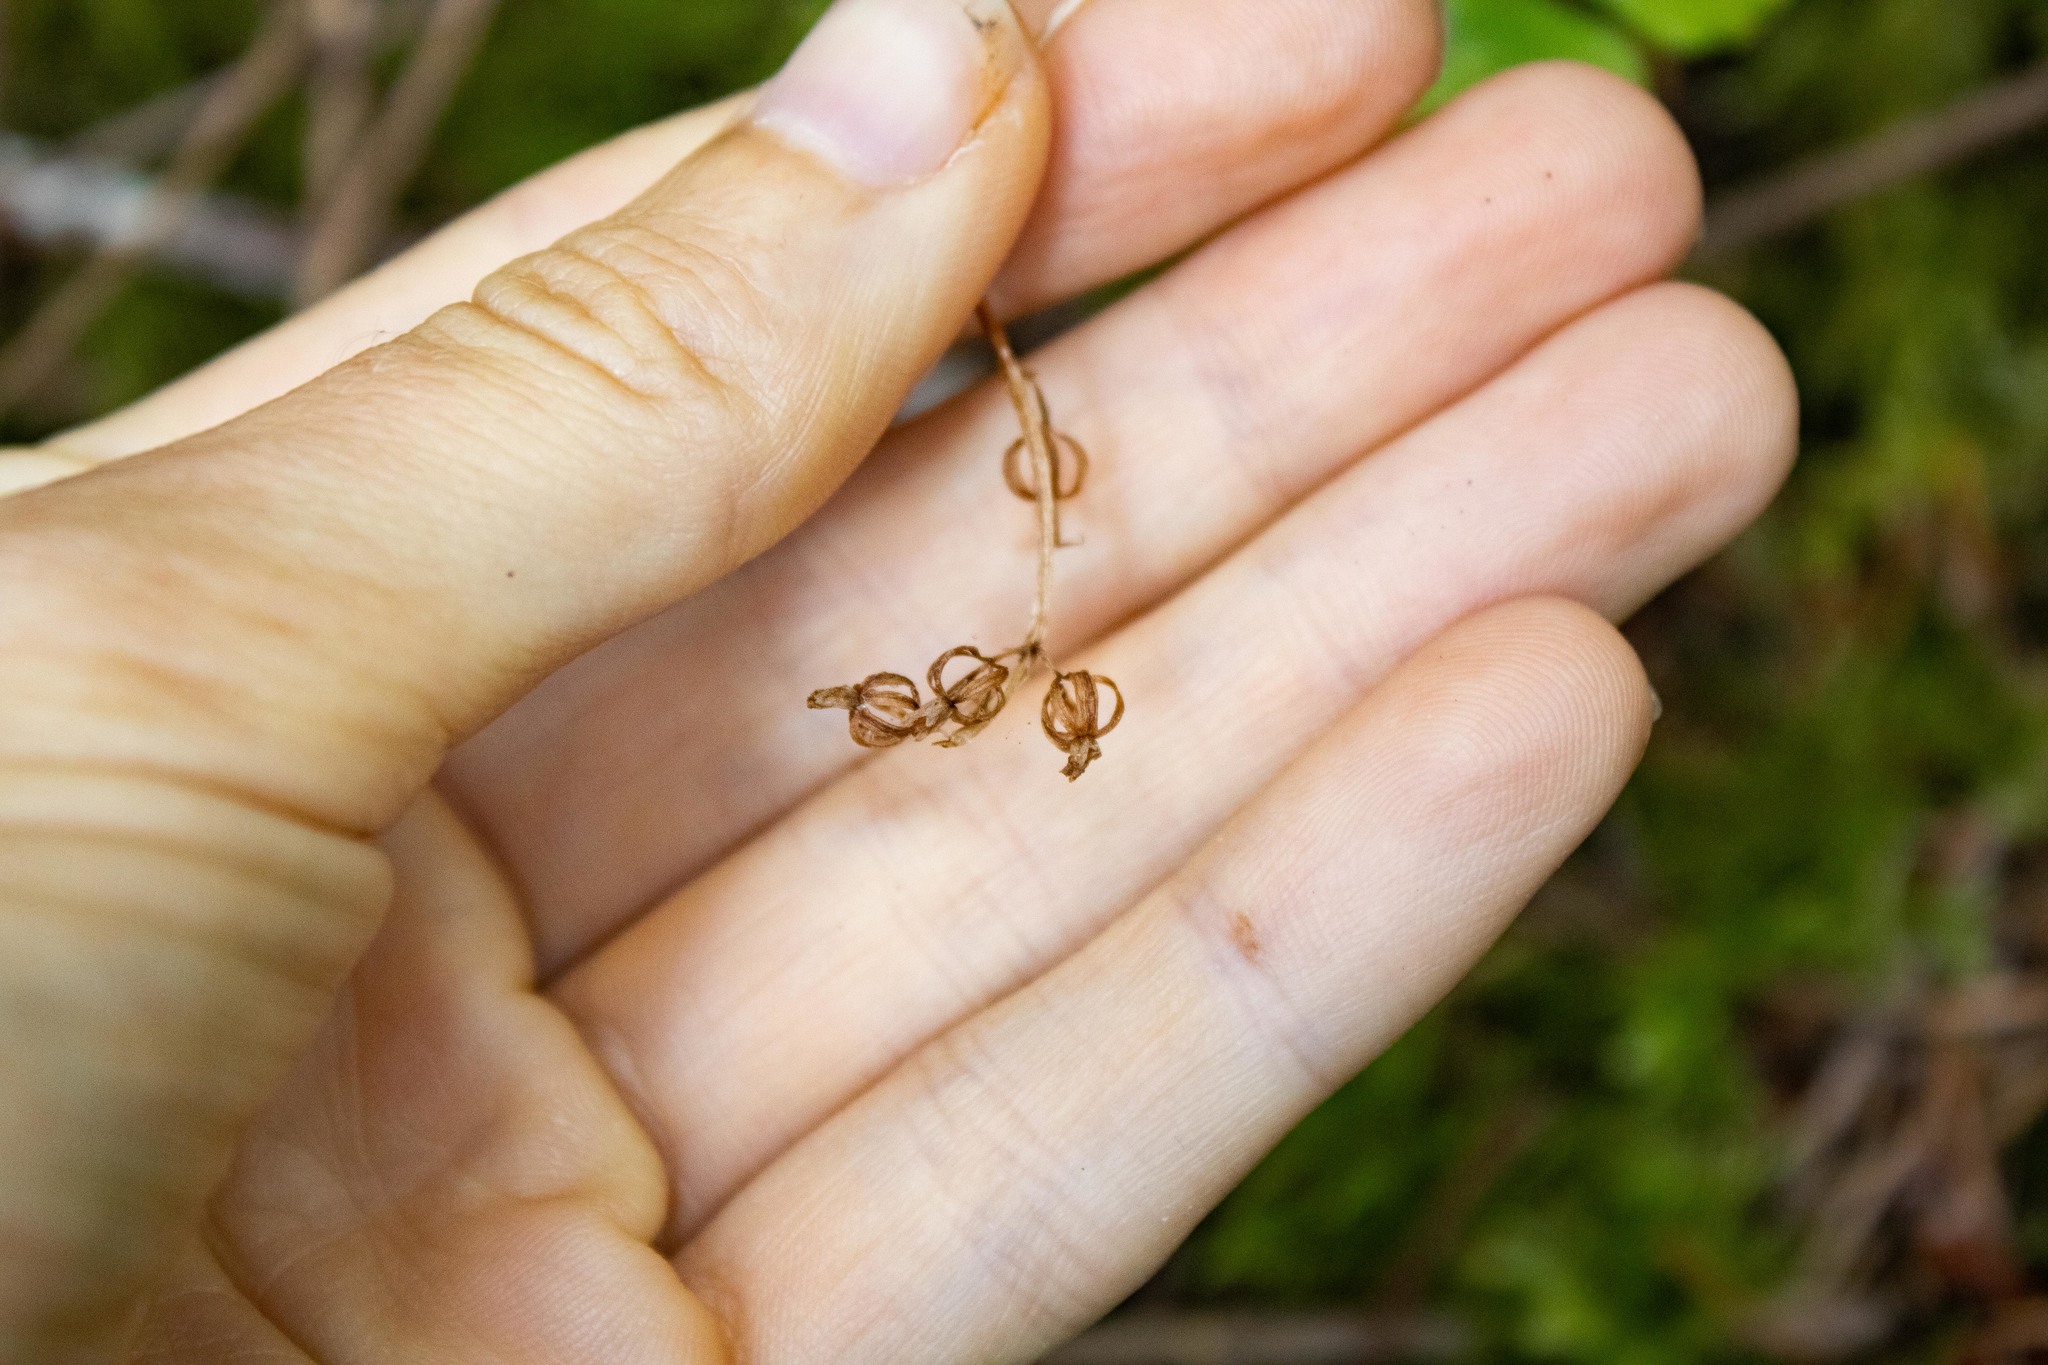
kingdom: Plantae
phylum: Tracheophyta
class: Liliopsida
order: Asparagales
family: Orchidaceae
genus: Neottia
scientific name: Neottia cordata
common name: Lesser twayblade
